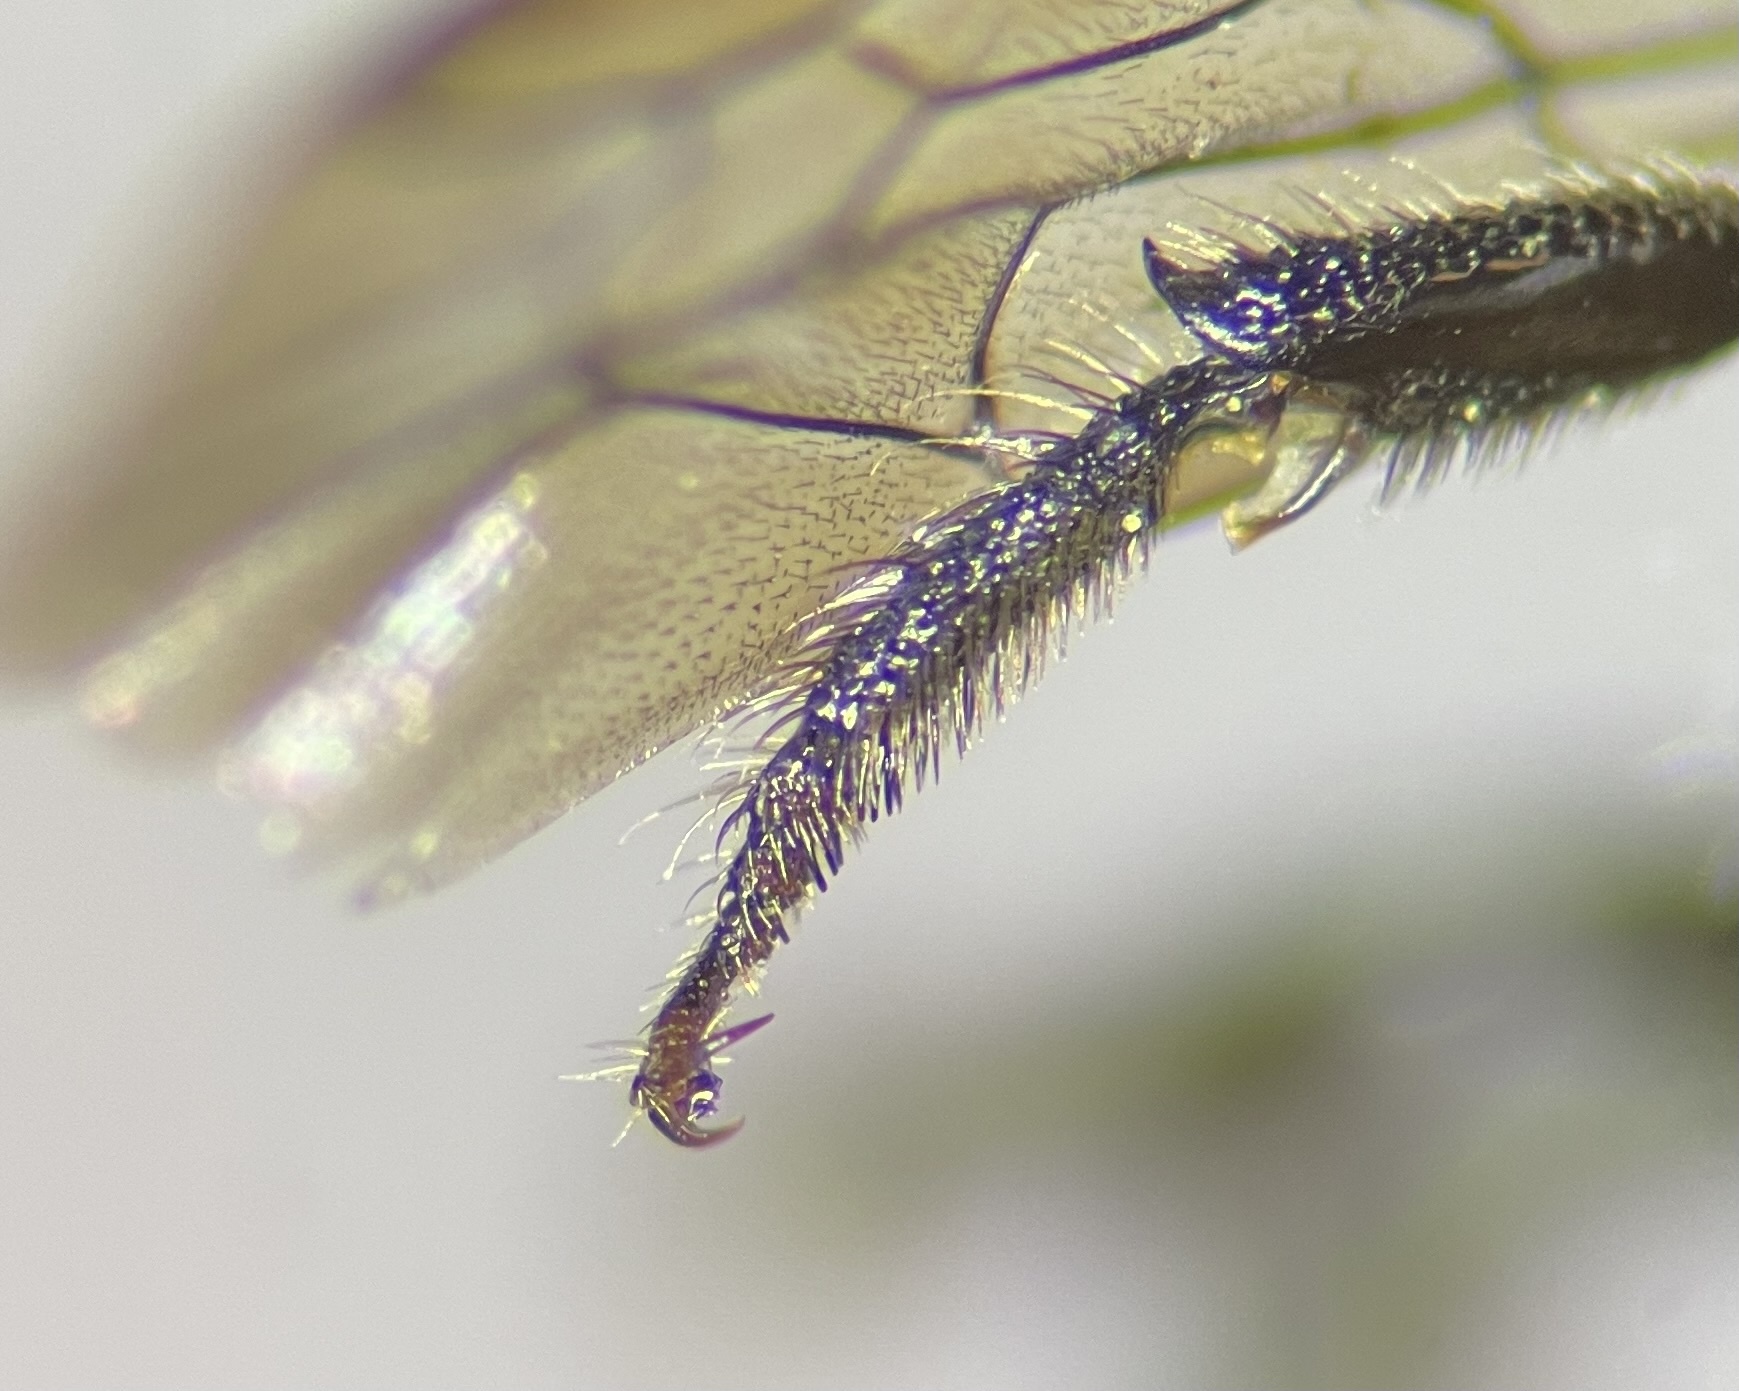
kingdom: Animalia
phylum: Arthropoda
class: Insecta
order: Hymenoptera
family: Megachilidae
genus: Osmia
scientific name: Osmia virga
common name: Twig mason bee
